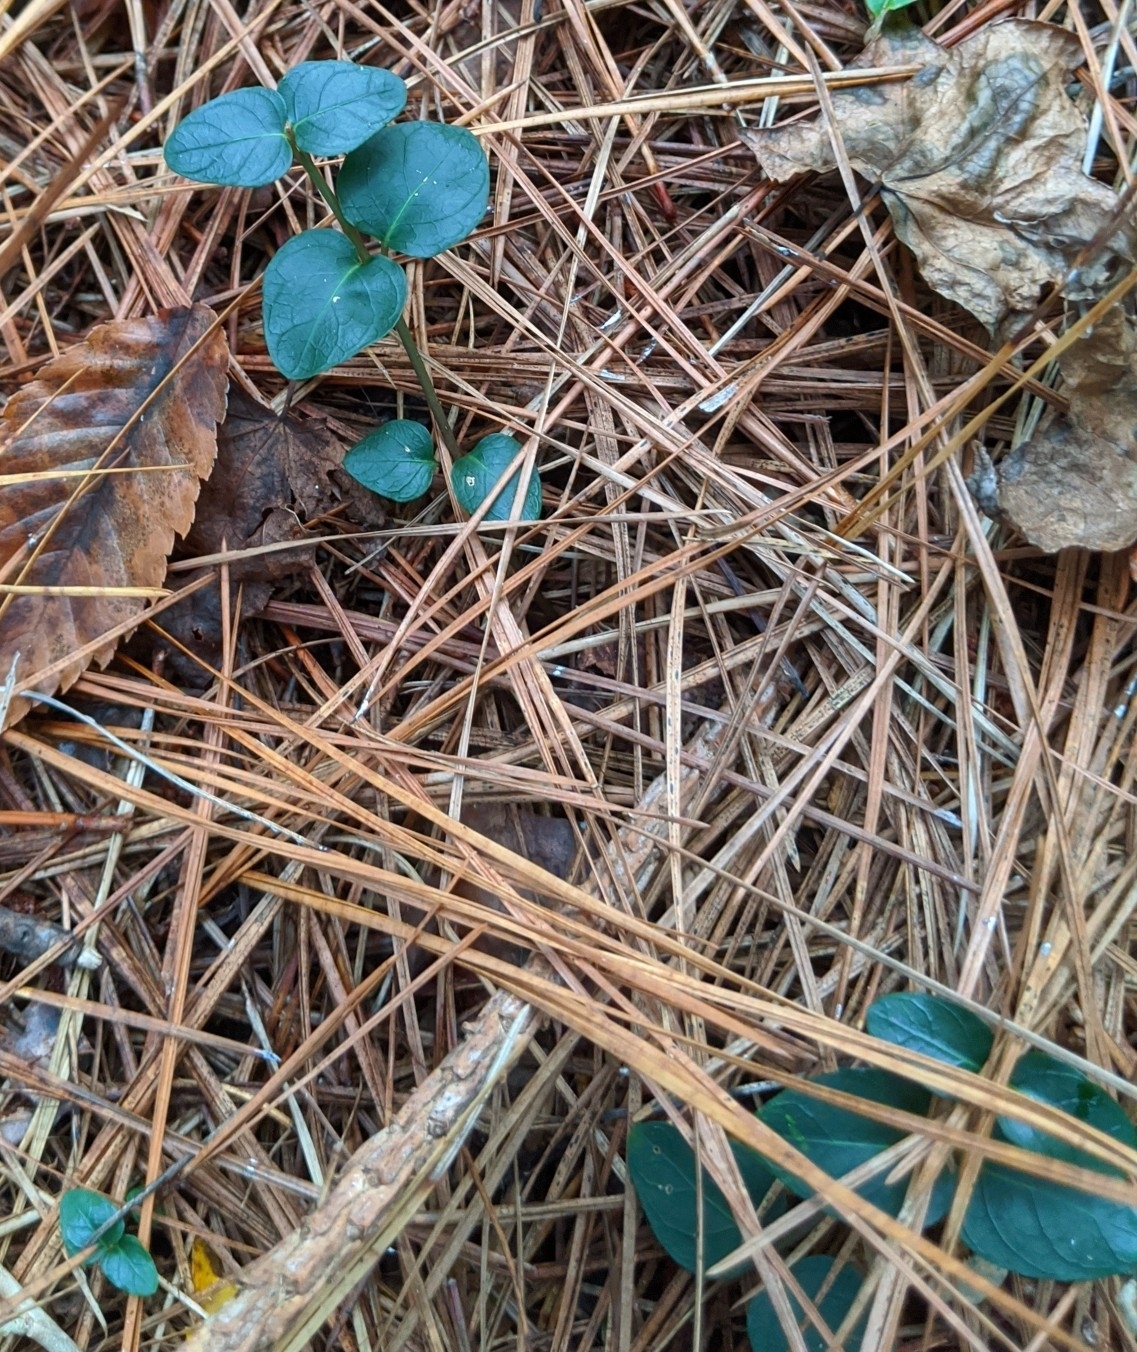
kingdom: Plantae
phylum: Tracheophyta
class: Magnoliopsida
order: Gentianales
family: Rubiaceae
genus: Mitchella
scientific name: Mitchella repens
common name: Partridge-berry
